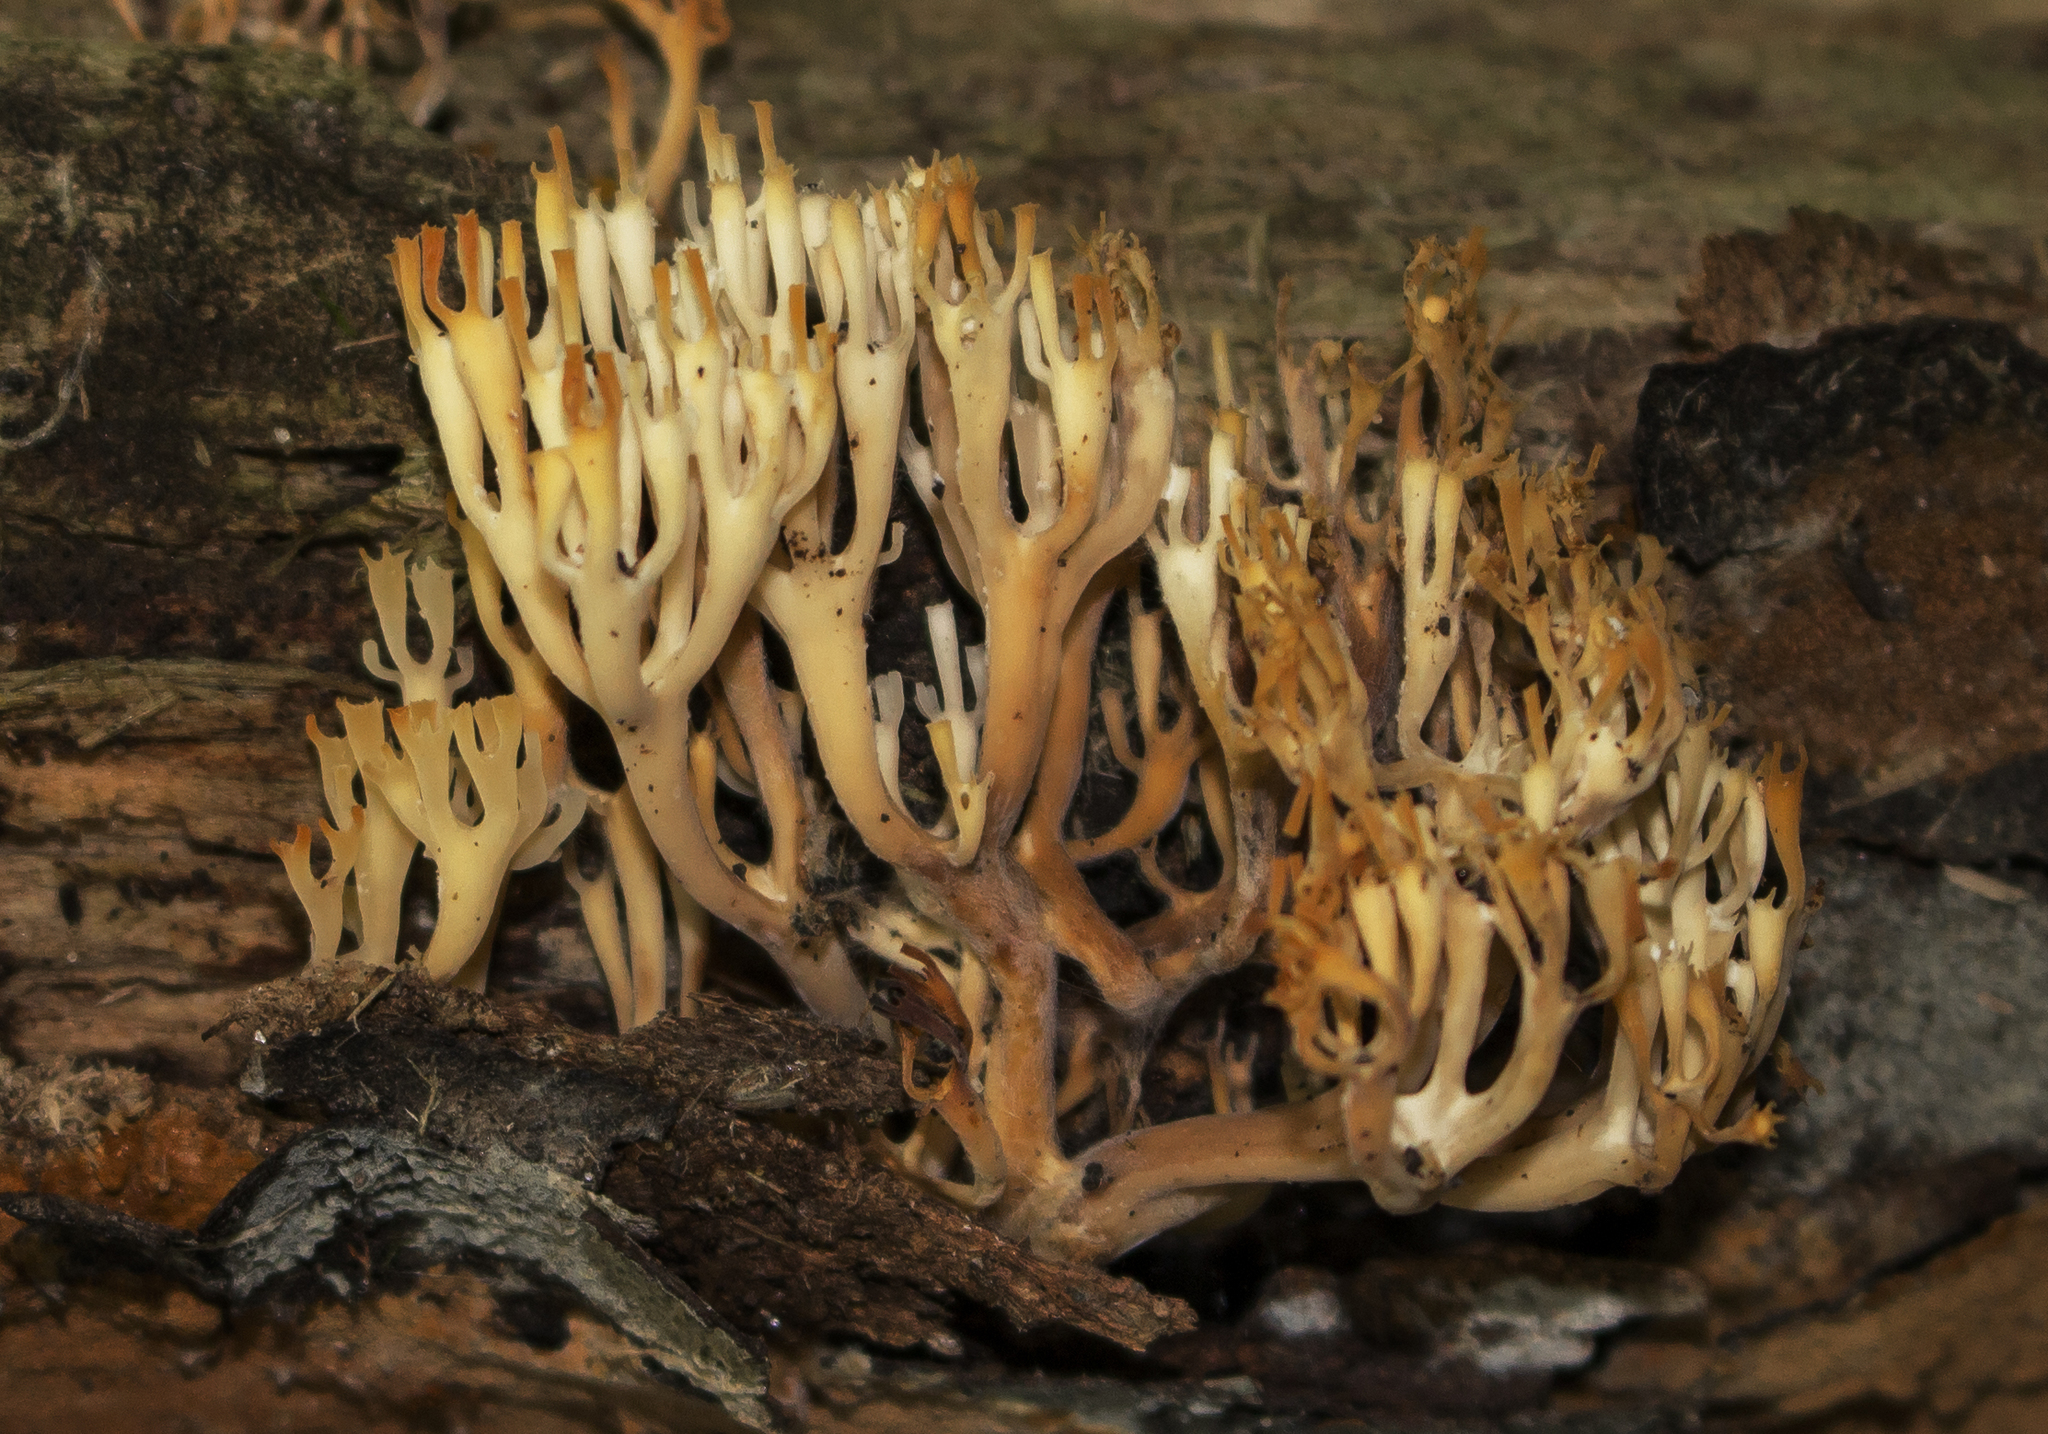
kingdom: Fungi
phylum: Basidiomycota
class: Agaricomycetes
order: Russulales
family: Auriscalpiaceae
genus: Artomyces
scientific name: Artomyces pyxidatus
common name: Crown-tipped coral fungus
